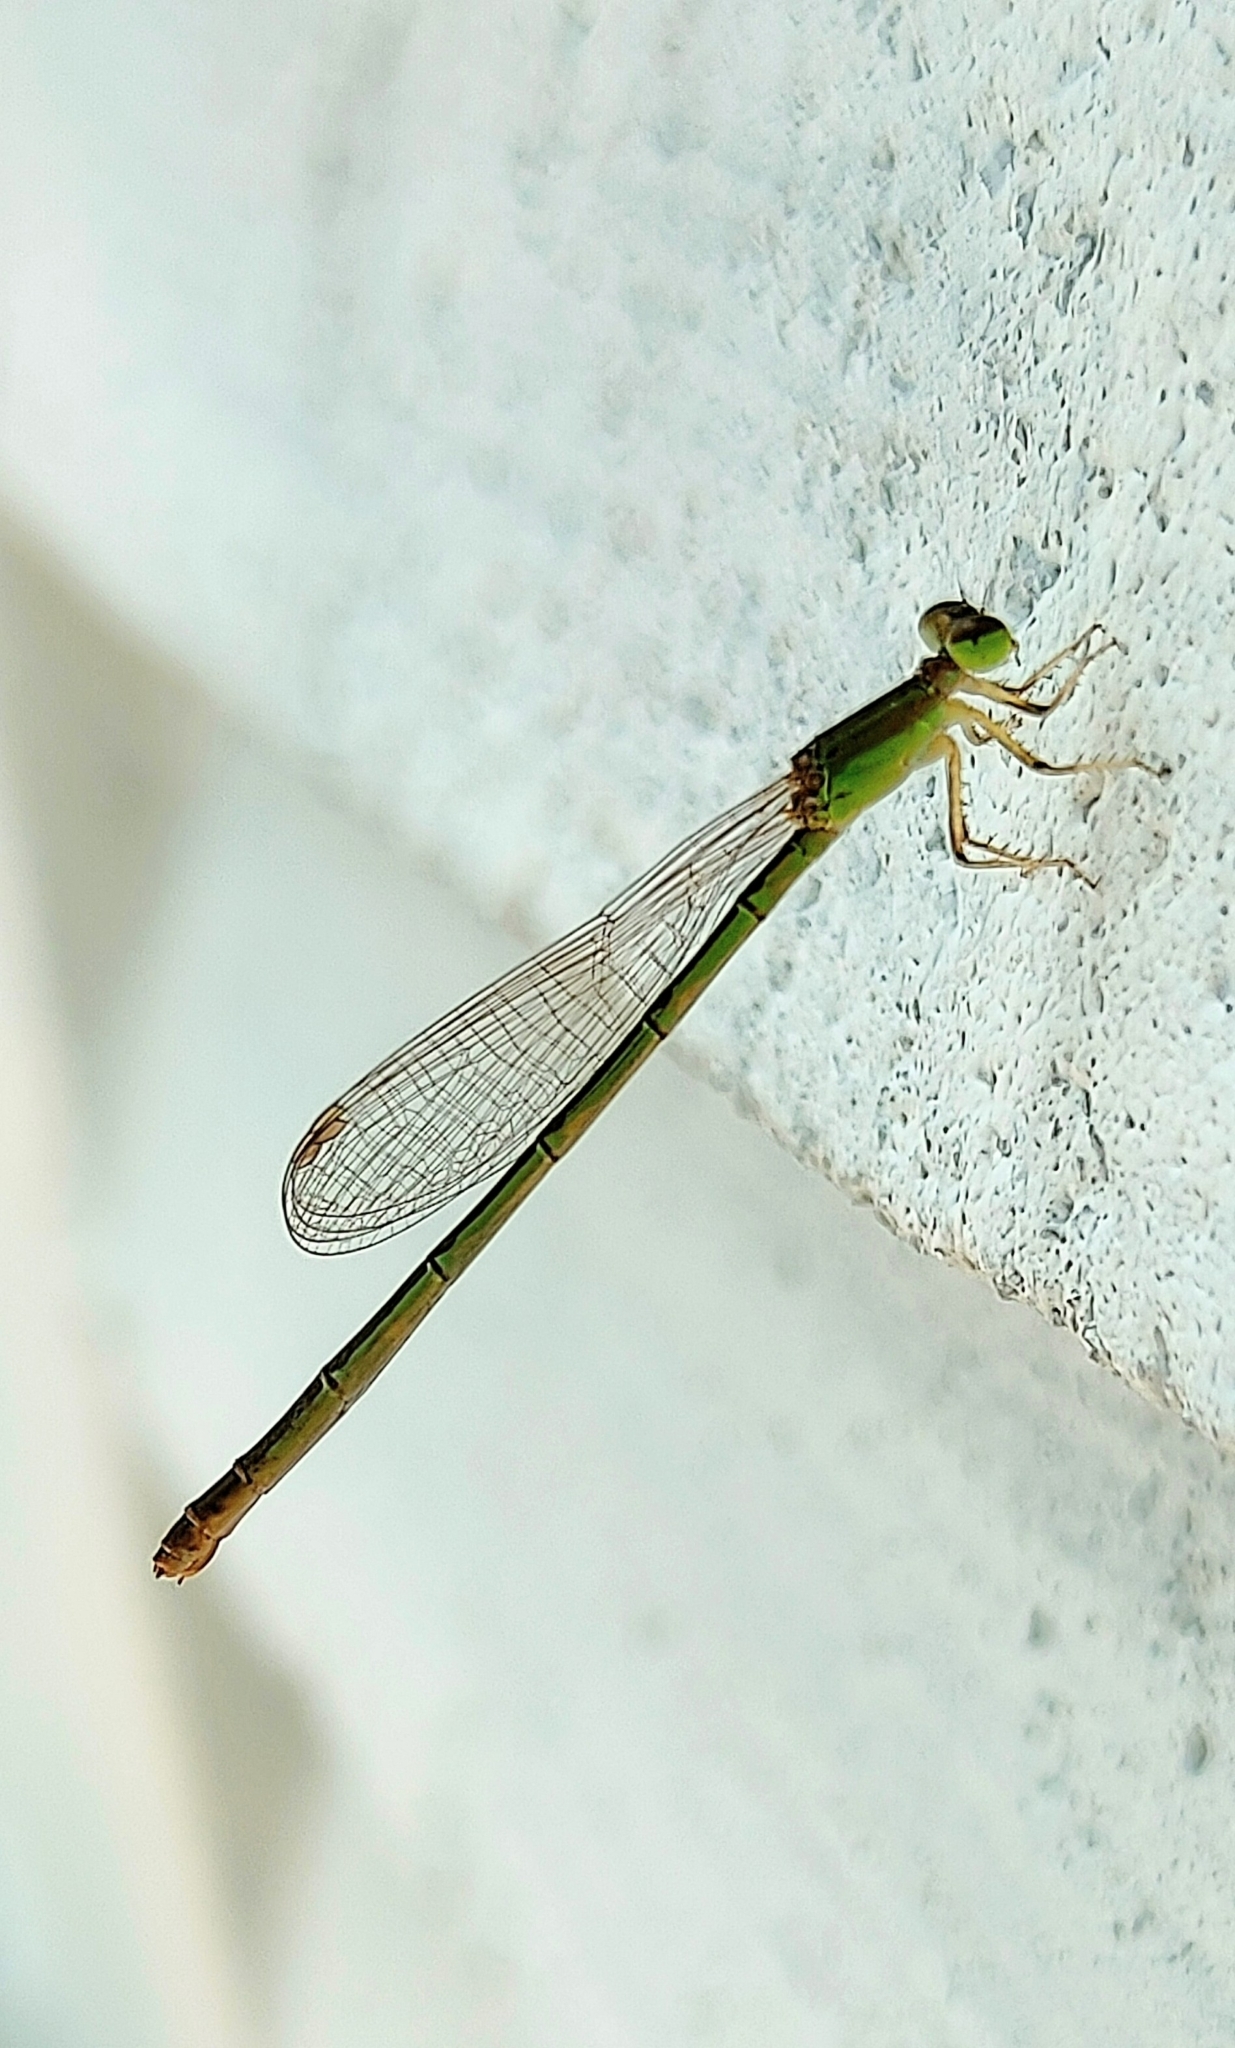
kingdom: Animalia
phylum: Arthropoda
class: Insecta
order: Odonata
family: Coenagrionidae
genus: Agriocnemis
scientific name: Agriocnemis pygmaea
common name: Pygmy wisp
